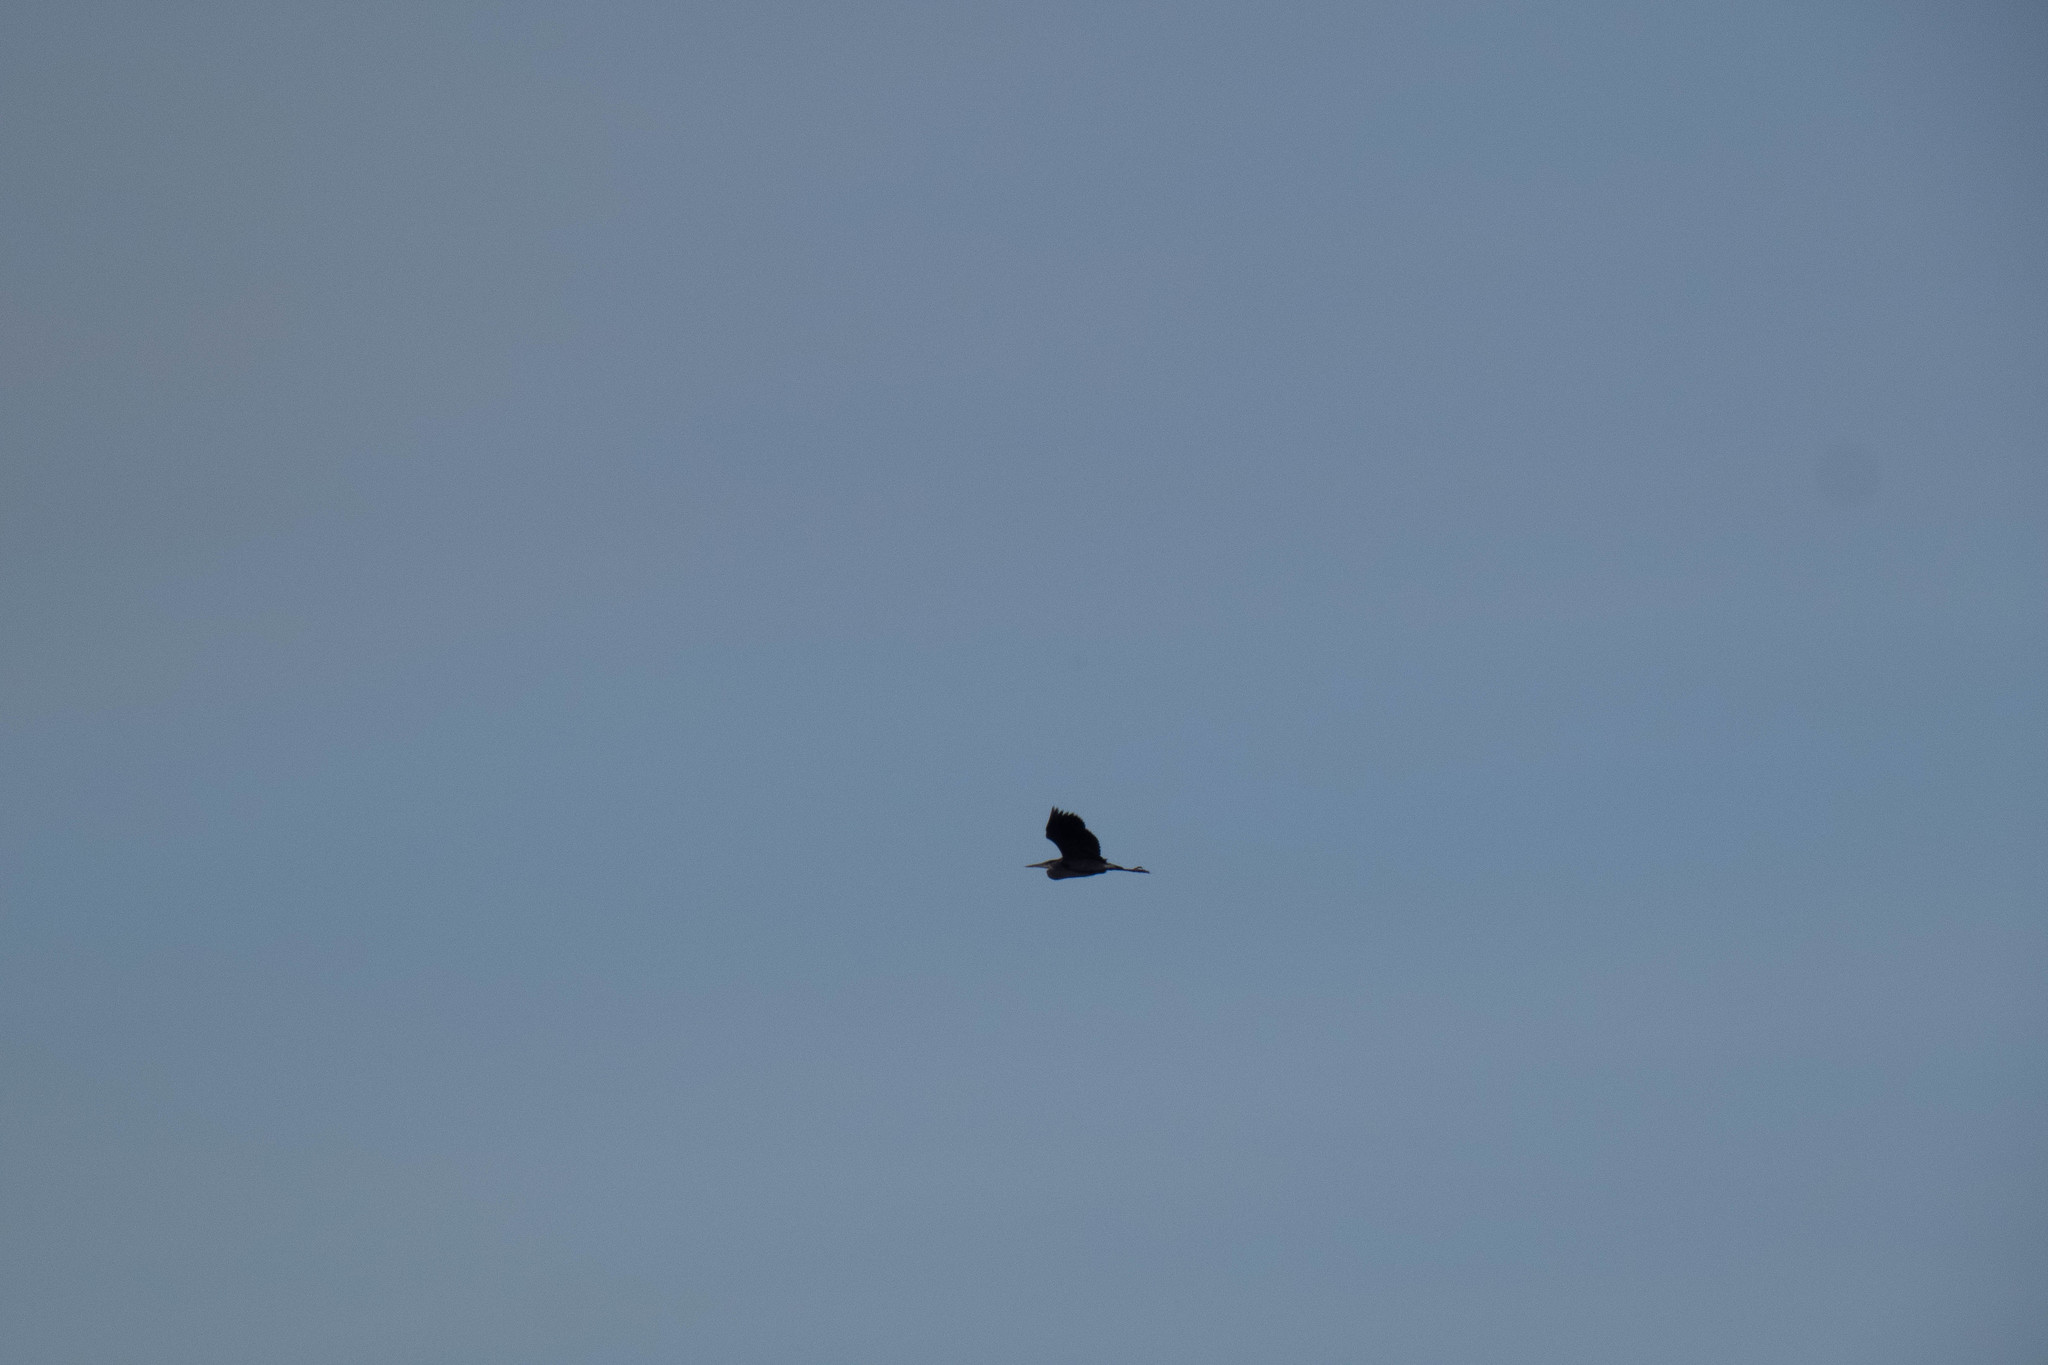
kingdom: Animalia
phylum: Chordata
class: Aves
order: Pelecaniformes
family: Ardeidae
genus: Ardea
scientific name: Ardea herodias
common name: Great blue heron
